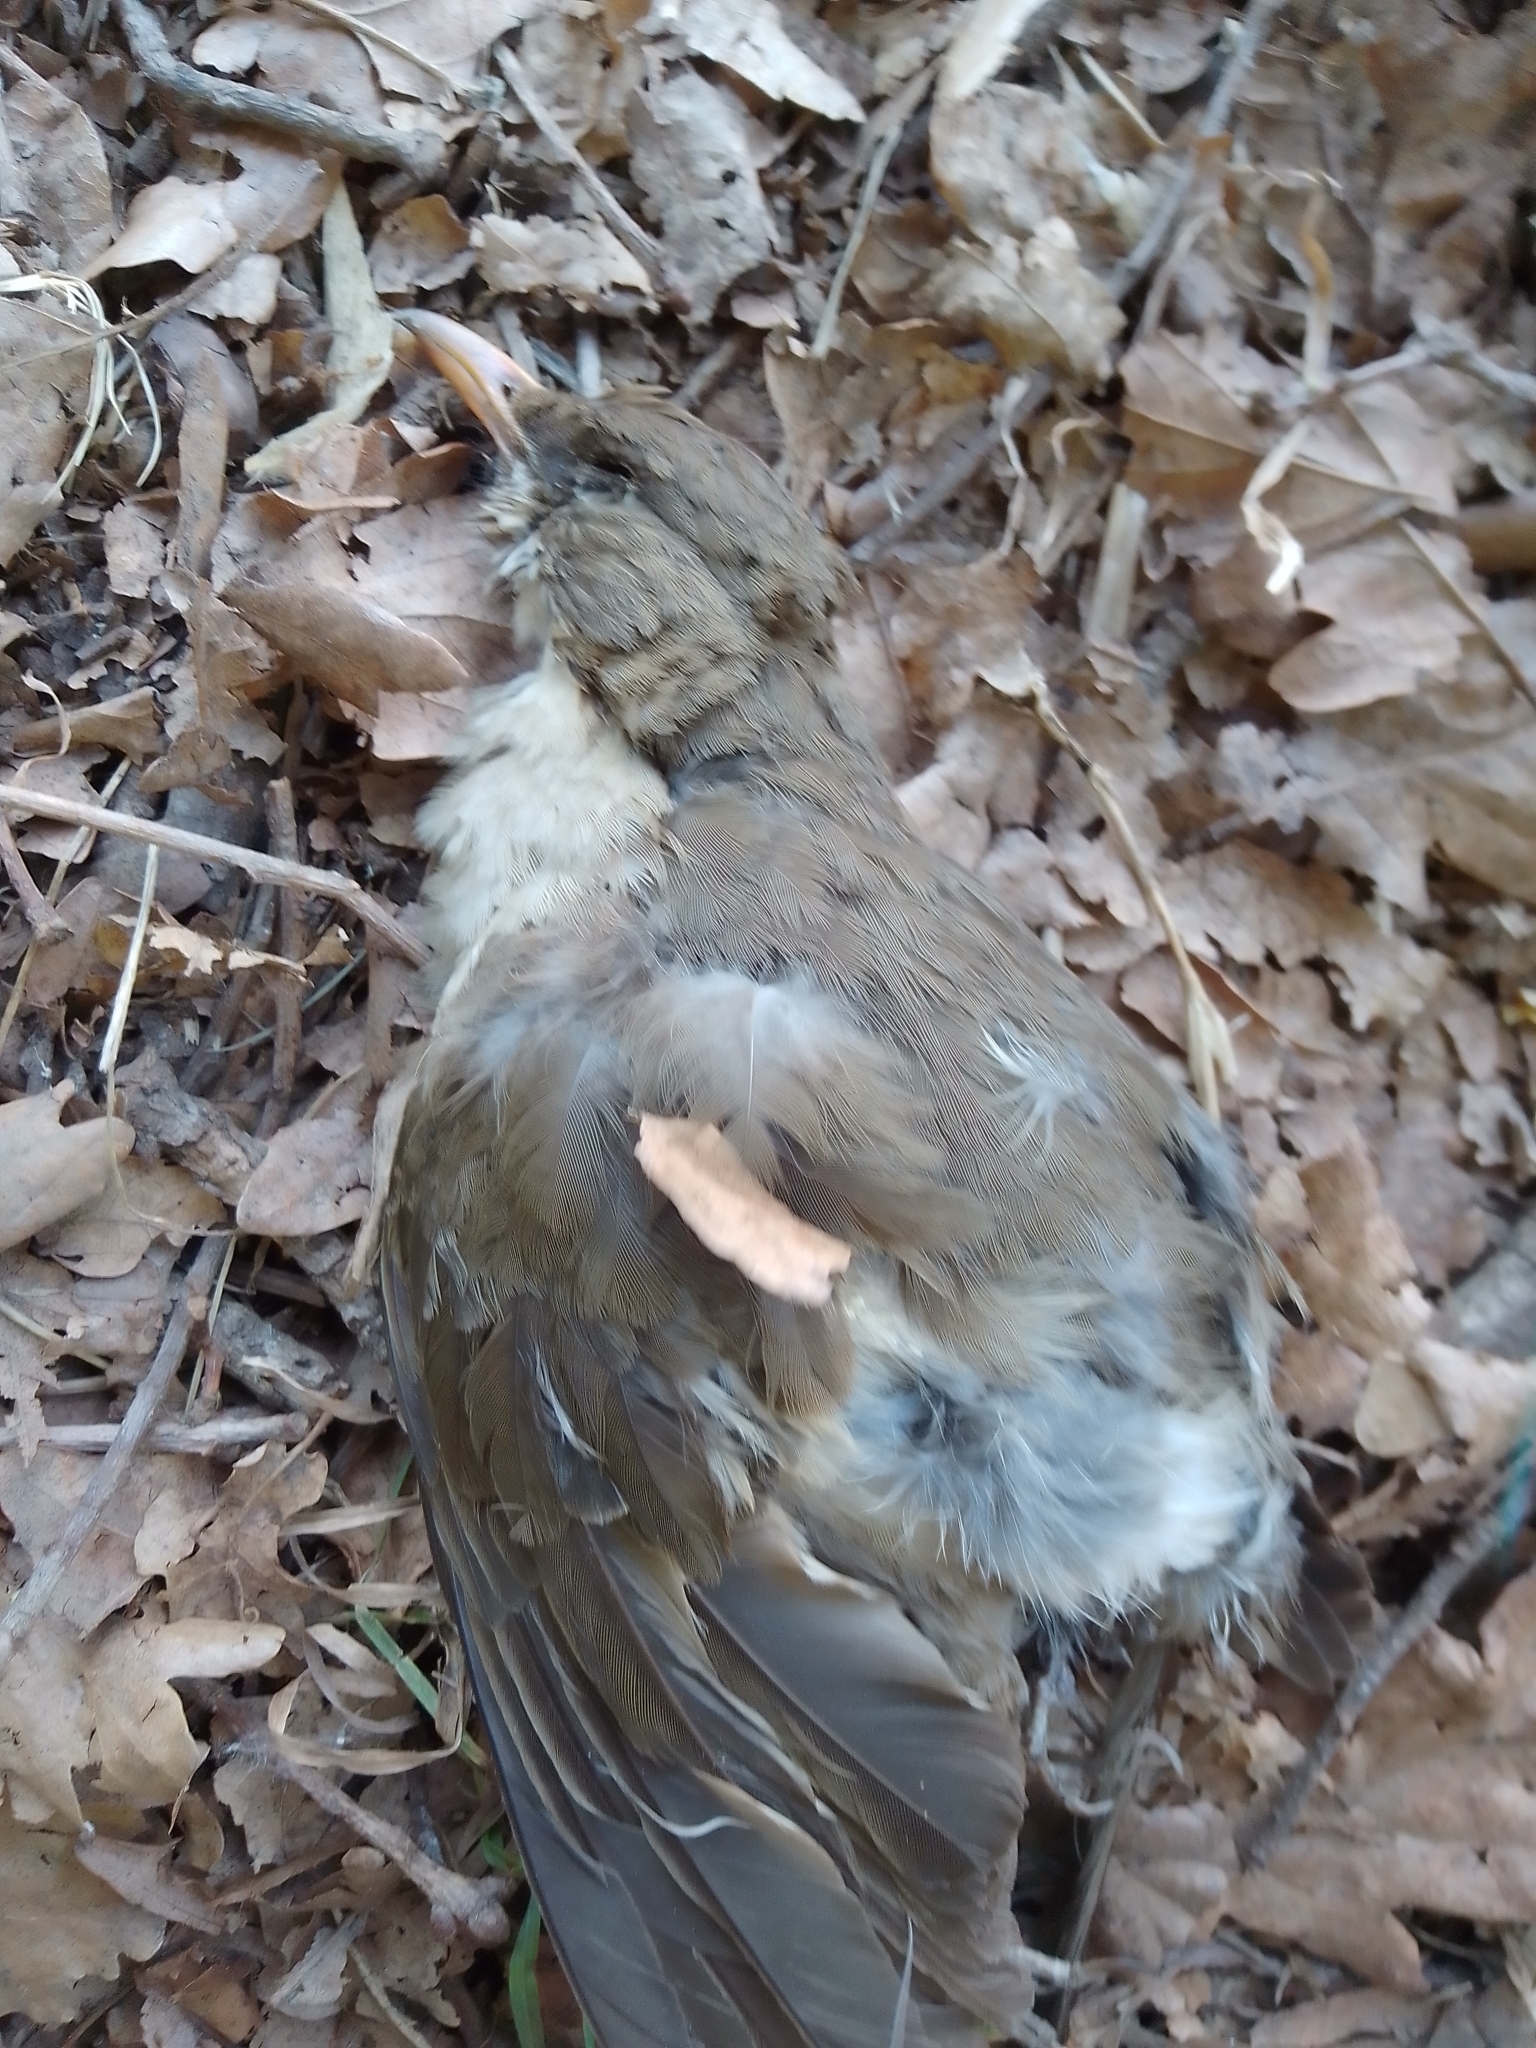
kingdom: Animalia
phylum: Chordata
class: Aves
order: Passeriformes
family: Turdidae
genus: Turdus
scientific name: Turdus amaurochalinus
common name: Creamy-bellied thrush
